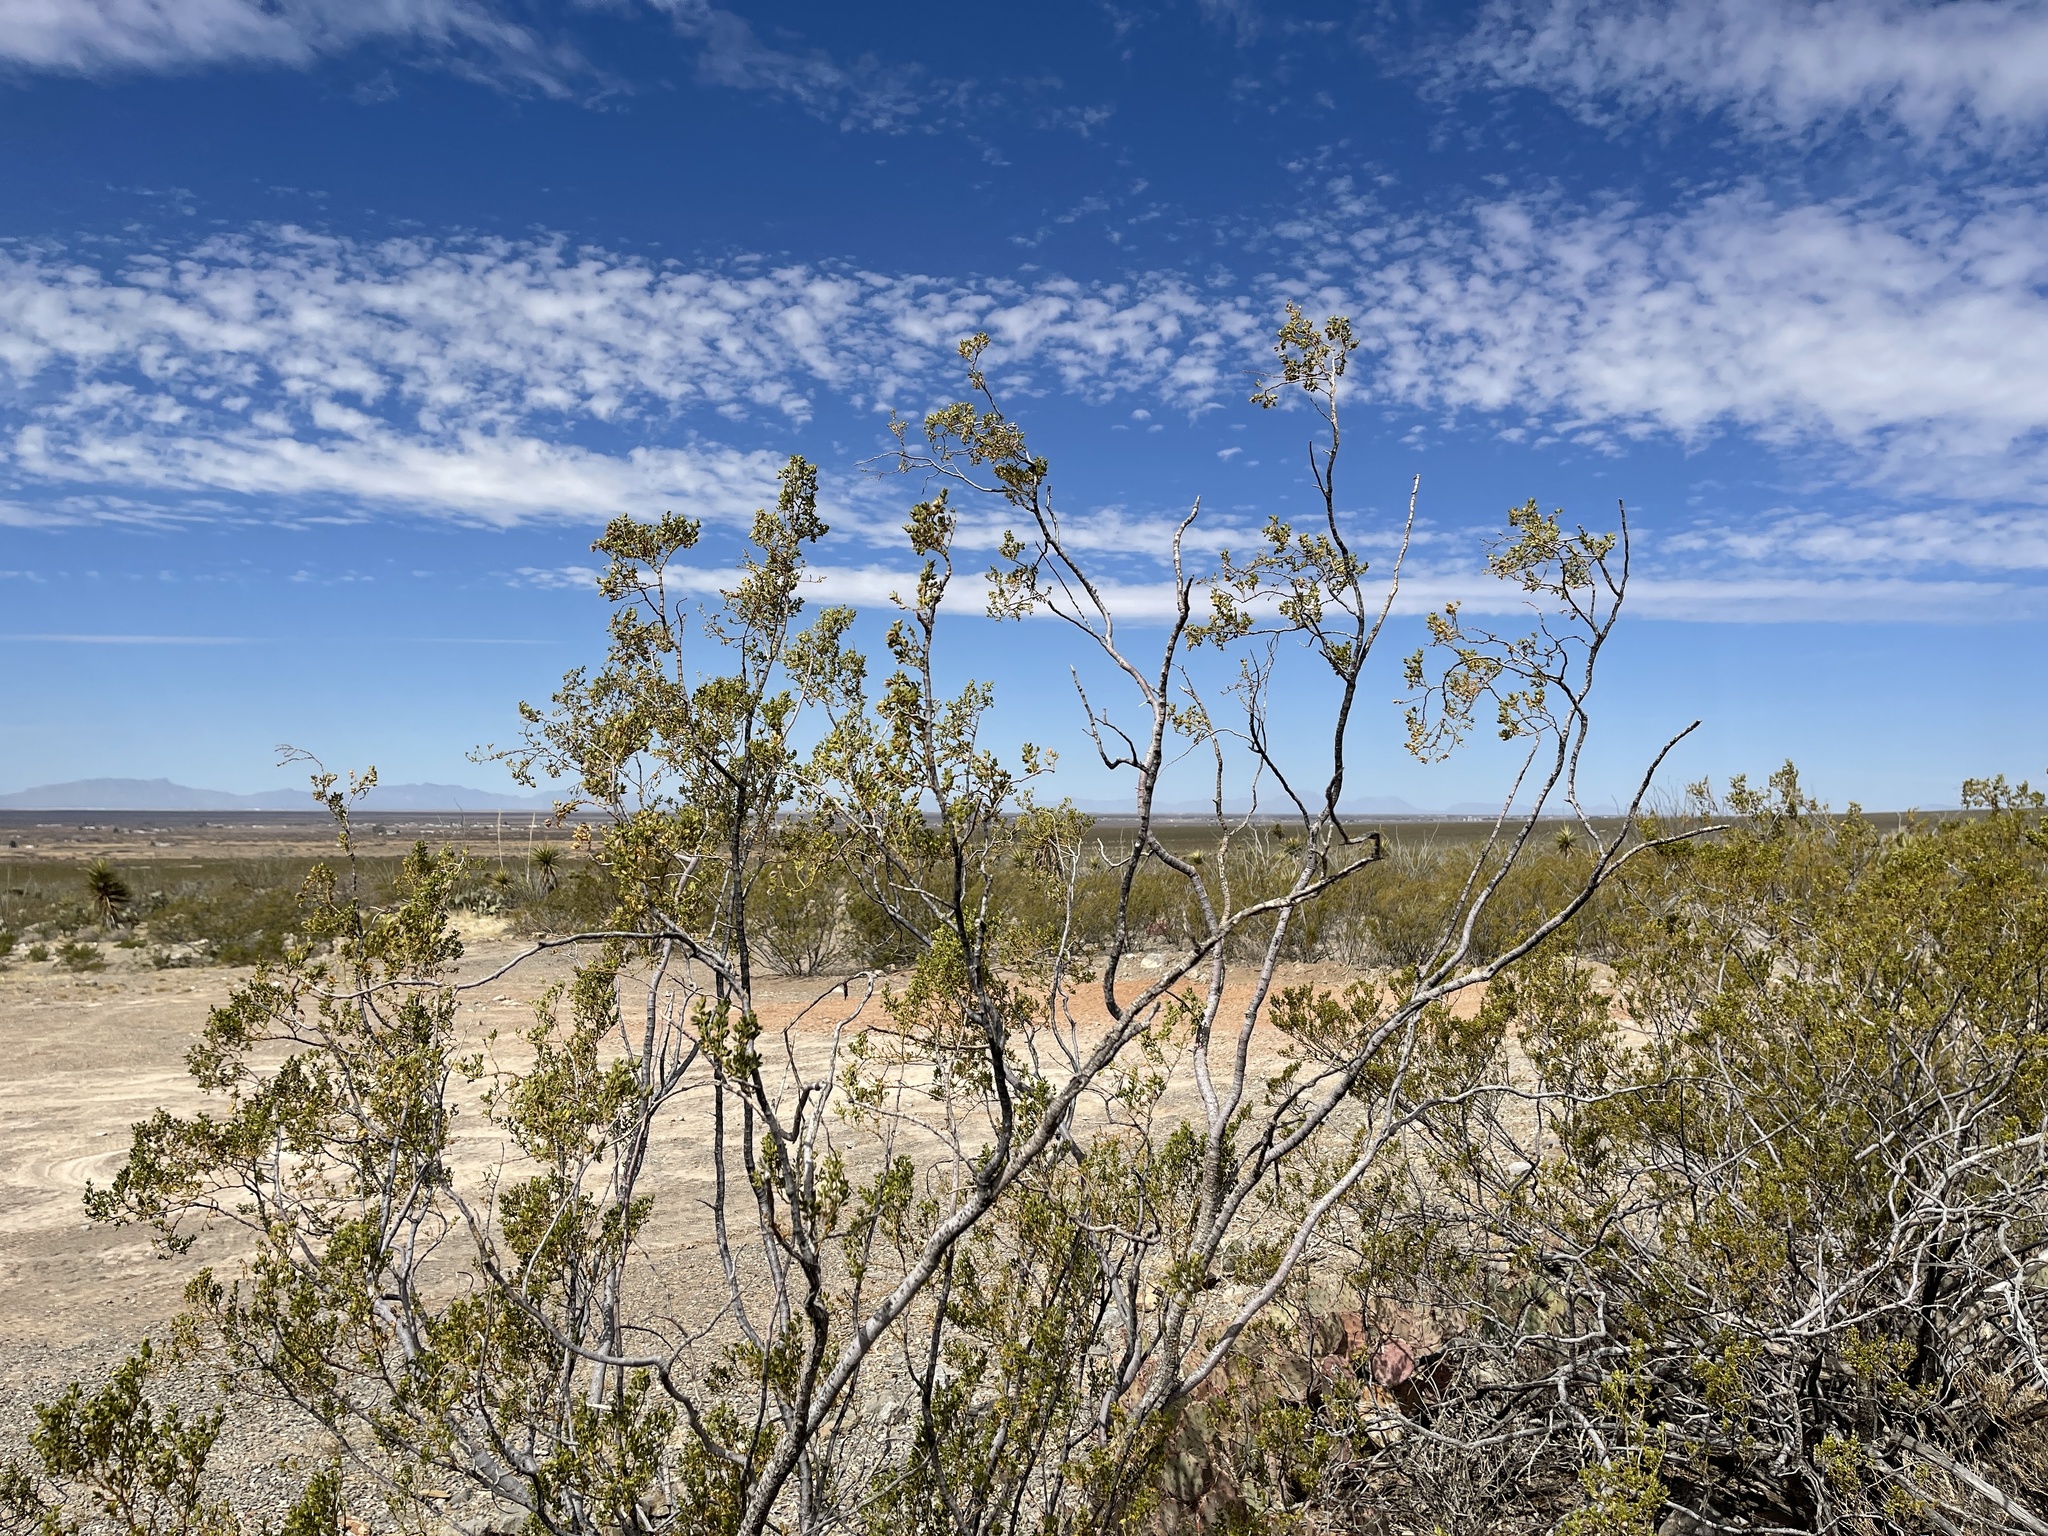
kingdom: Plantae
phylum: Tracheophyta
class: Magnoliopsida
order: Zygophyllales
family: Zygophyllaceae
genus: Larrea
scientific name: Larrea tridentata
